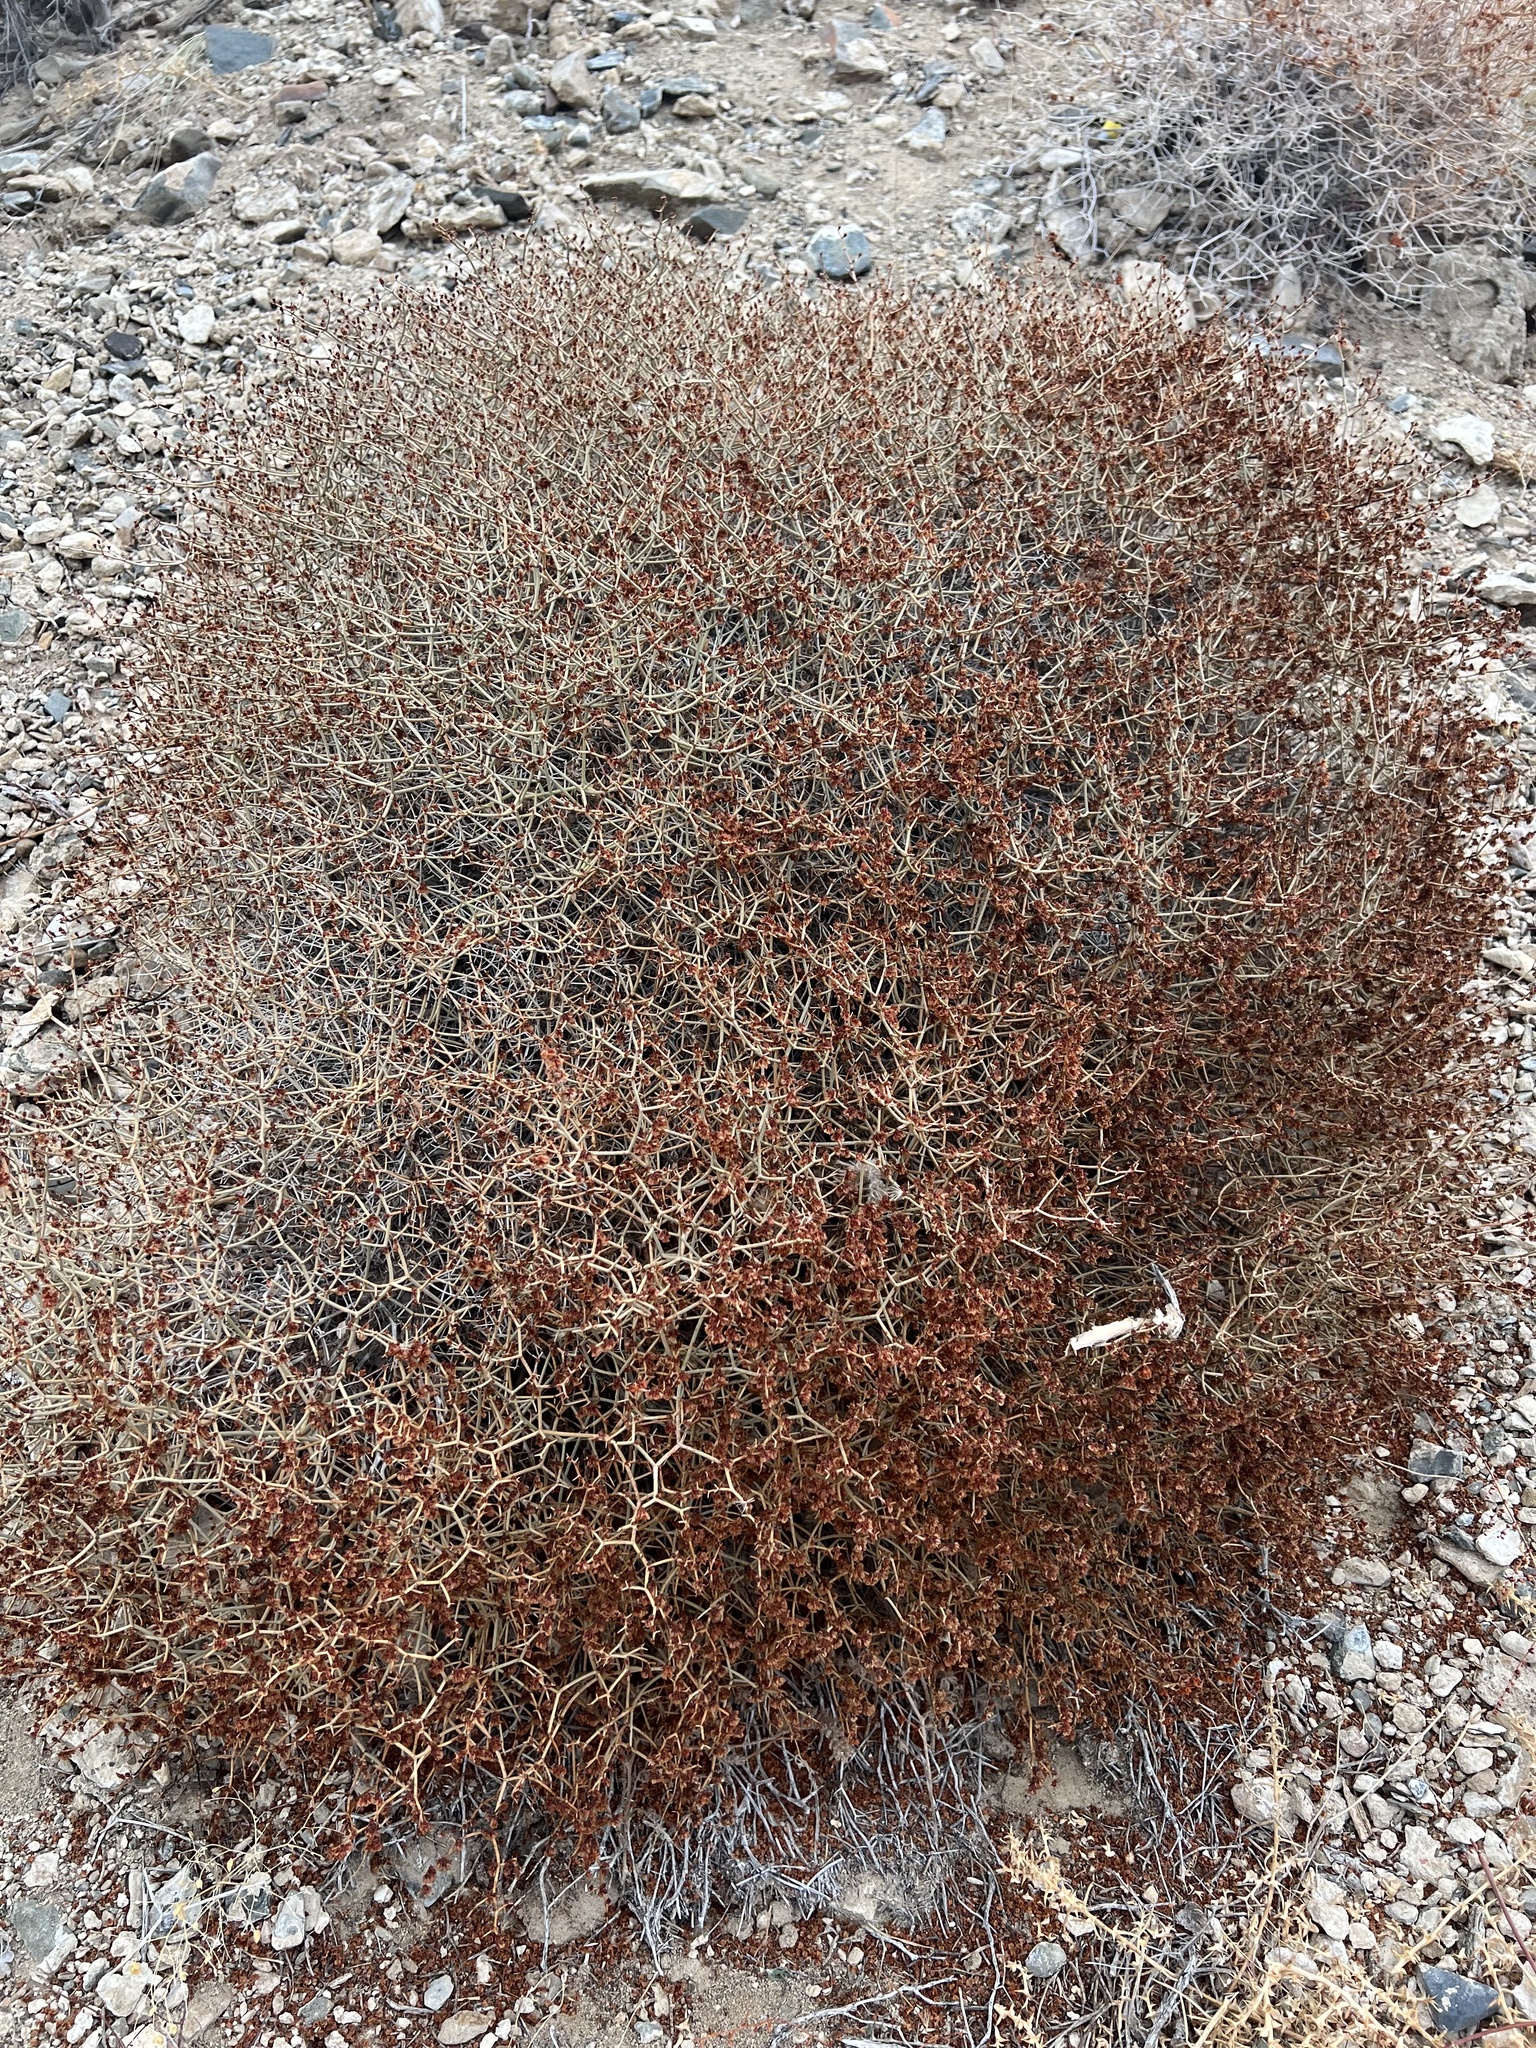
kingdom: Plantae
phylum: Tracheophyta
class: Magnoliopsida
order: Caryophyllales
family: Polygonaceae
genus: Eriogonum
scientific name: Eriogonum heermannii
